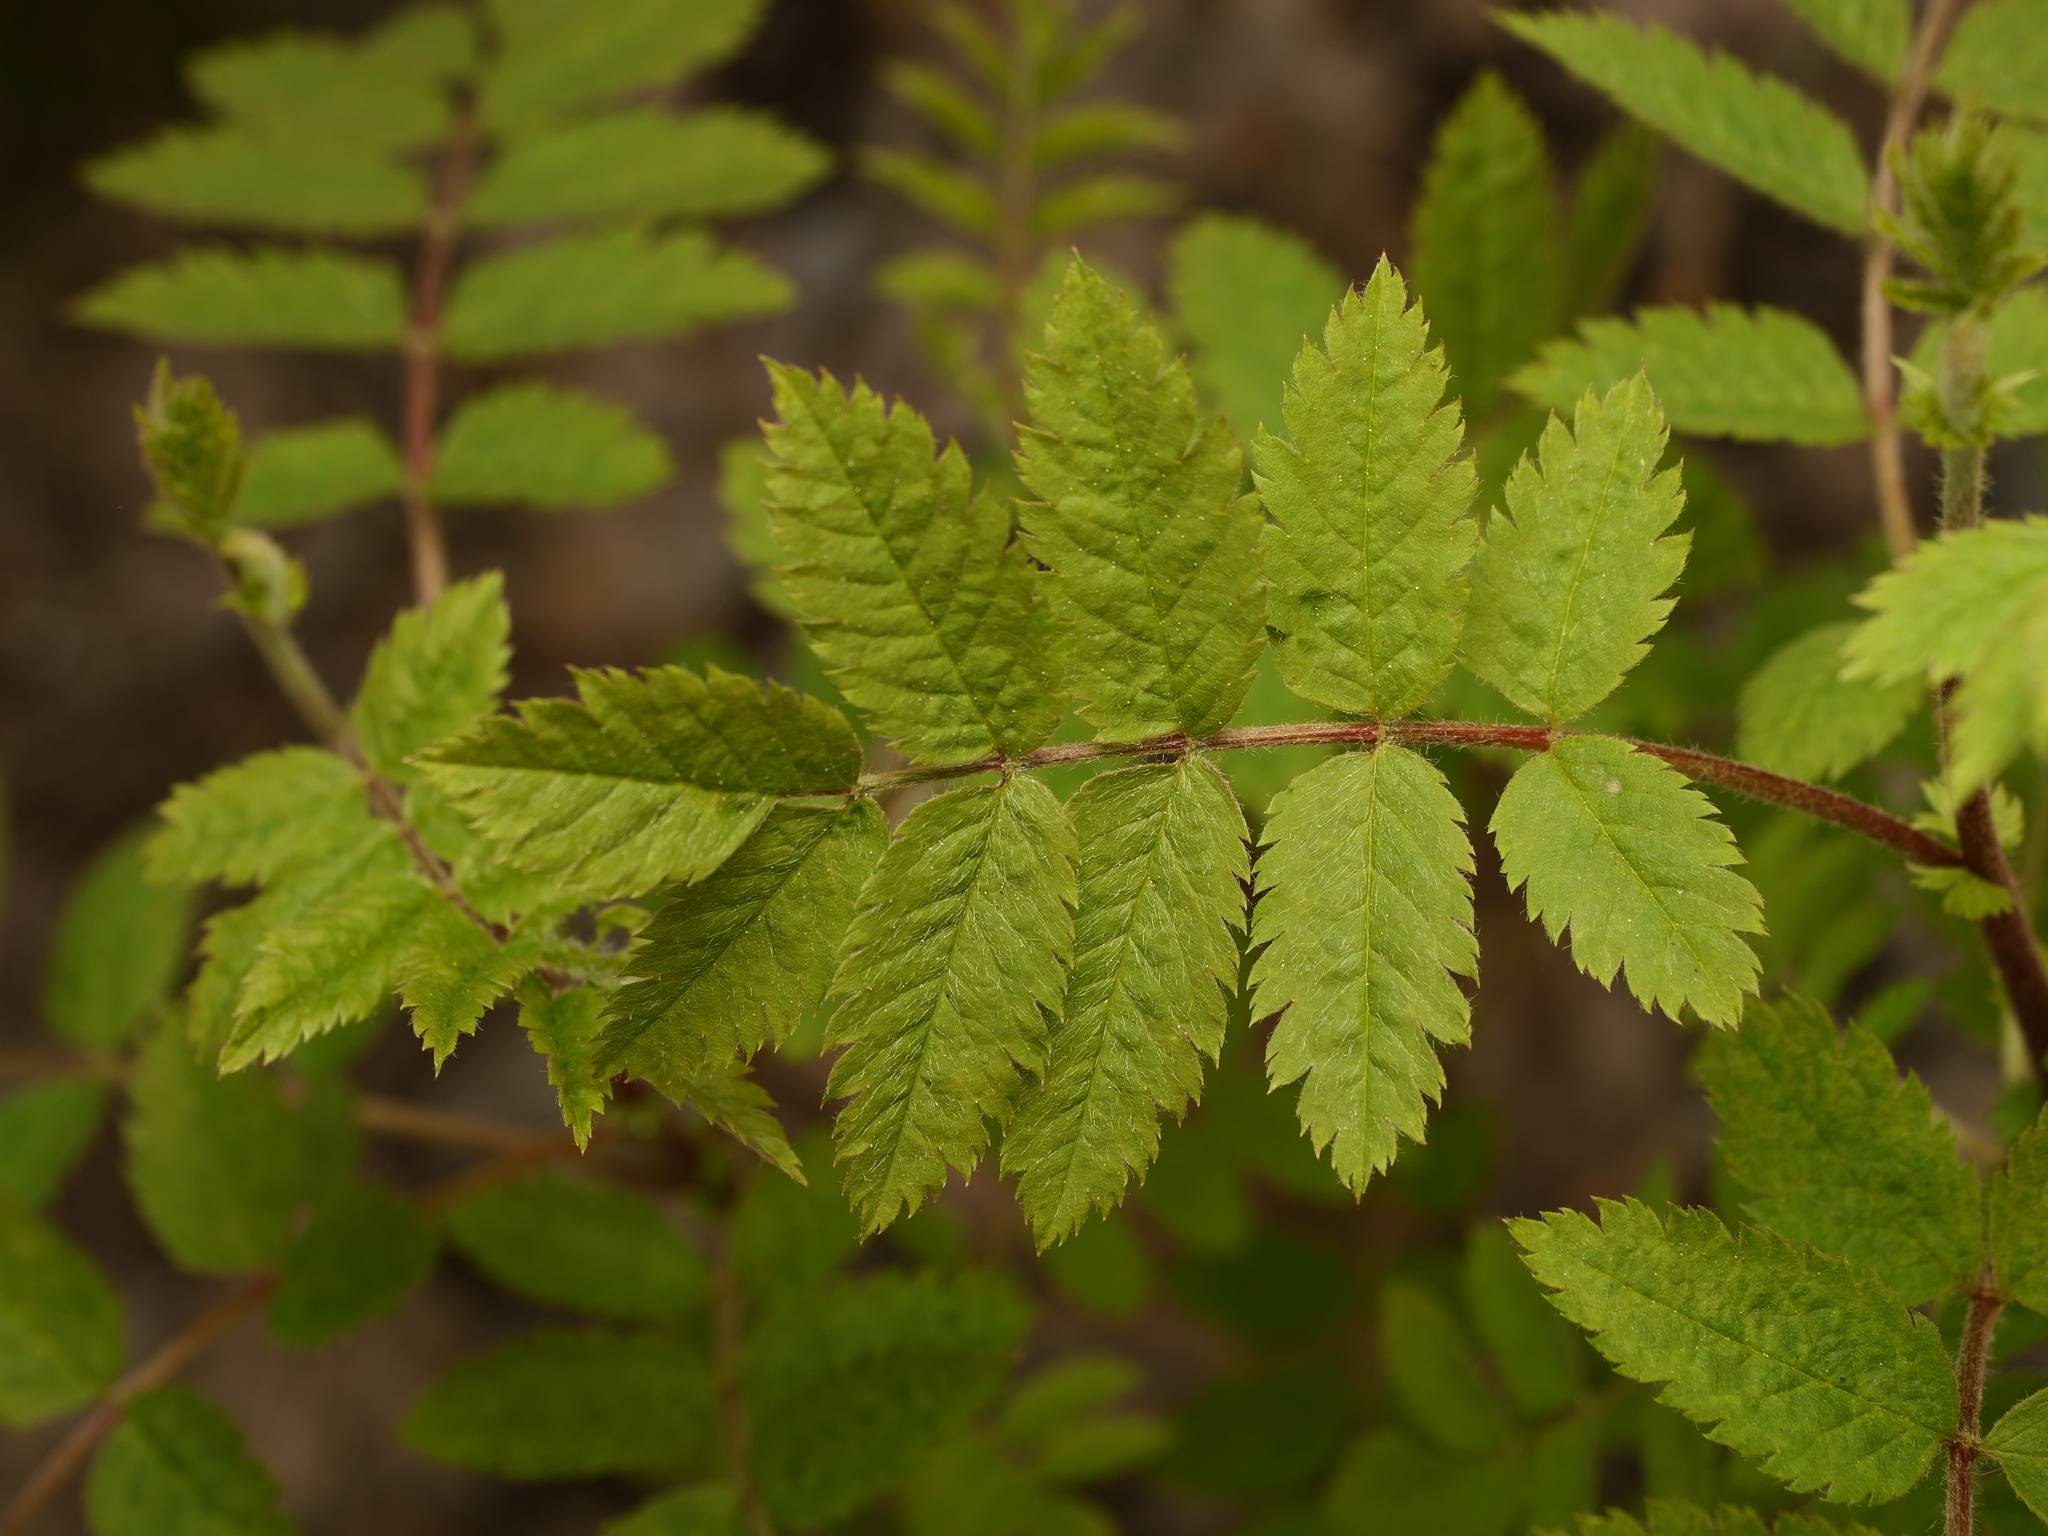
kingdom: Plantae
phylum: Tracheophyta
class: Magnoliopsida
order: Rosales
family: Rosaceae
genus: Sorbus
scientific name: Sorbus aucuparia
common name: Rowan
